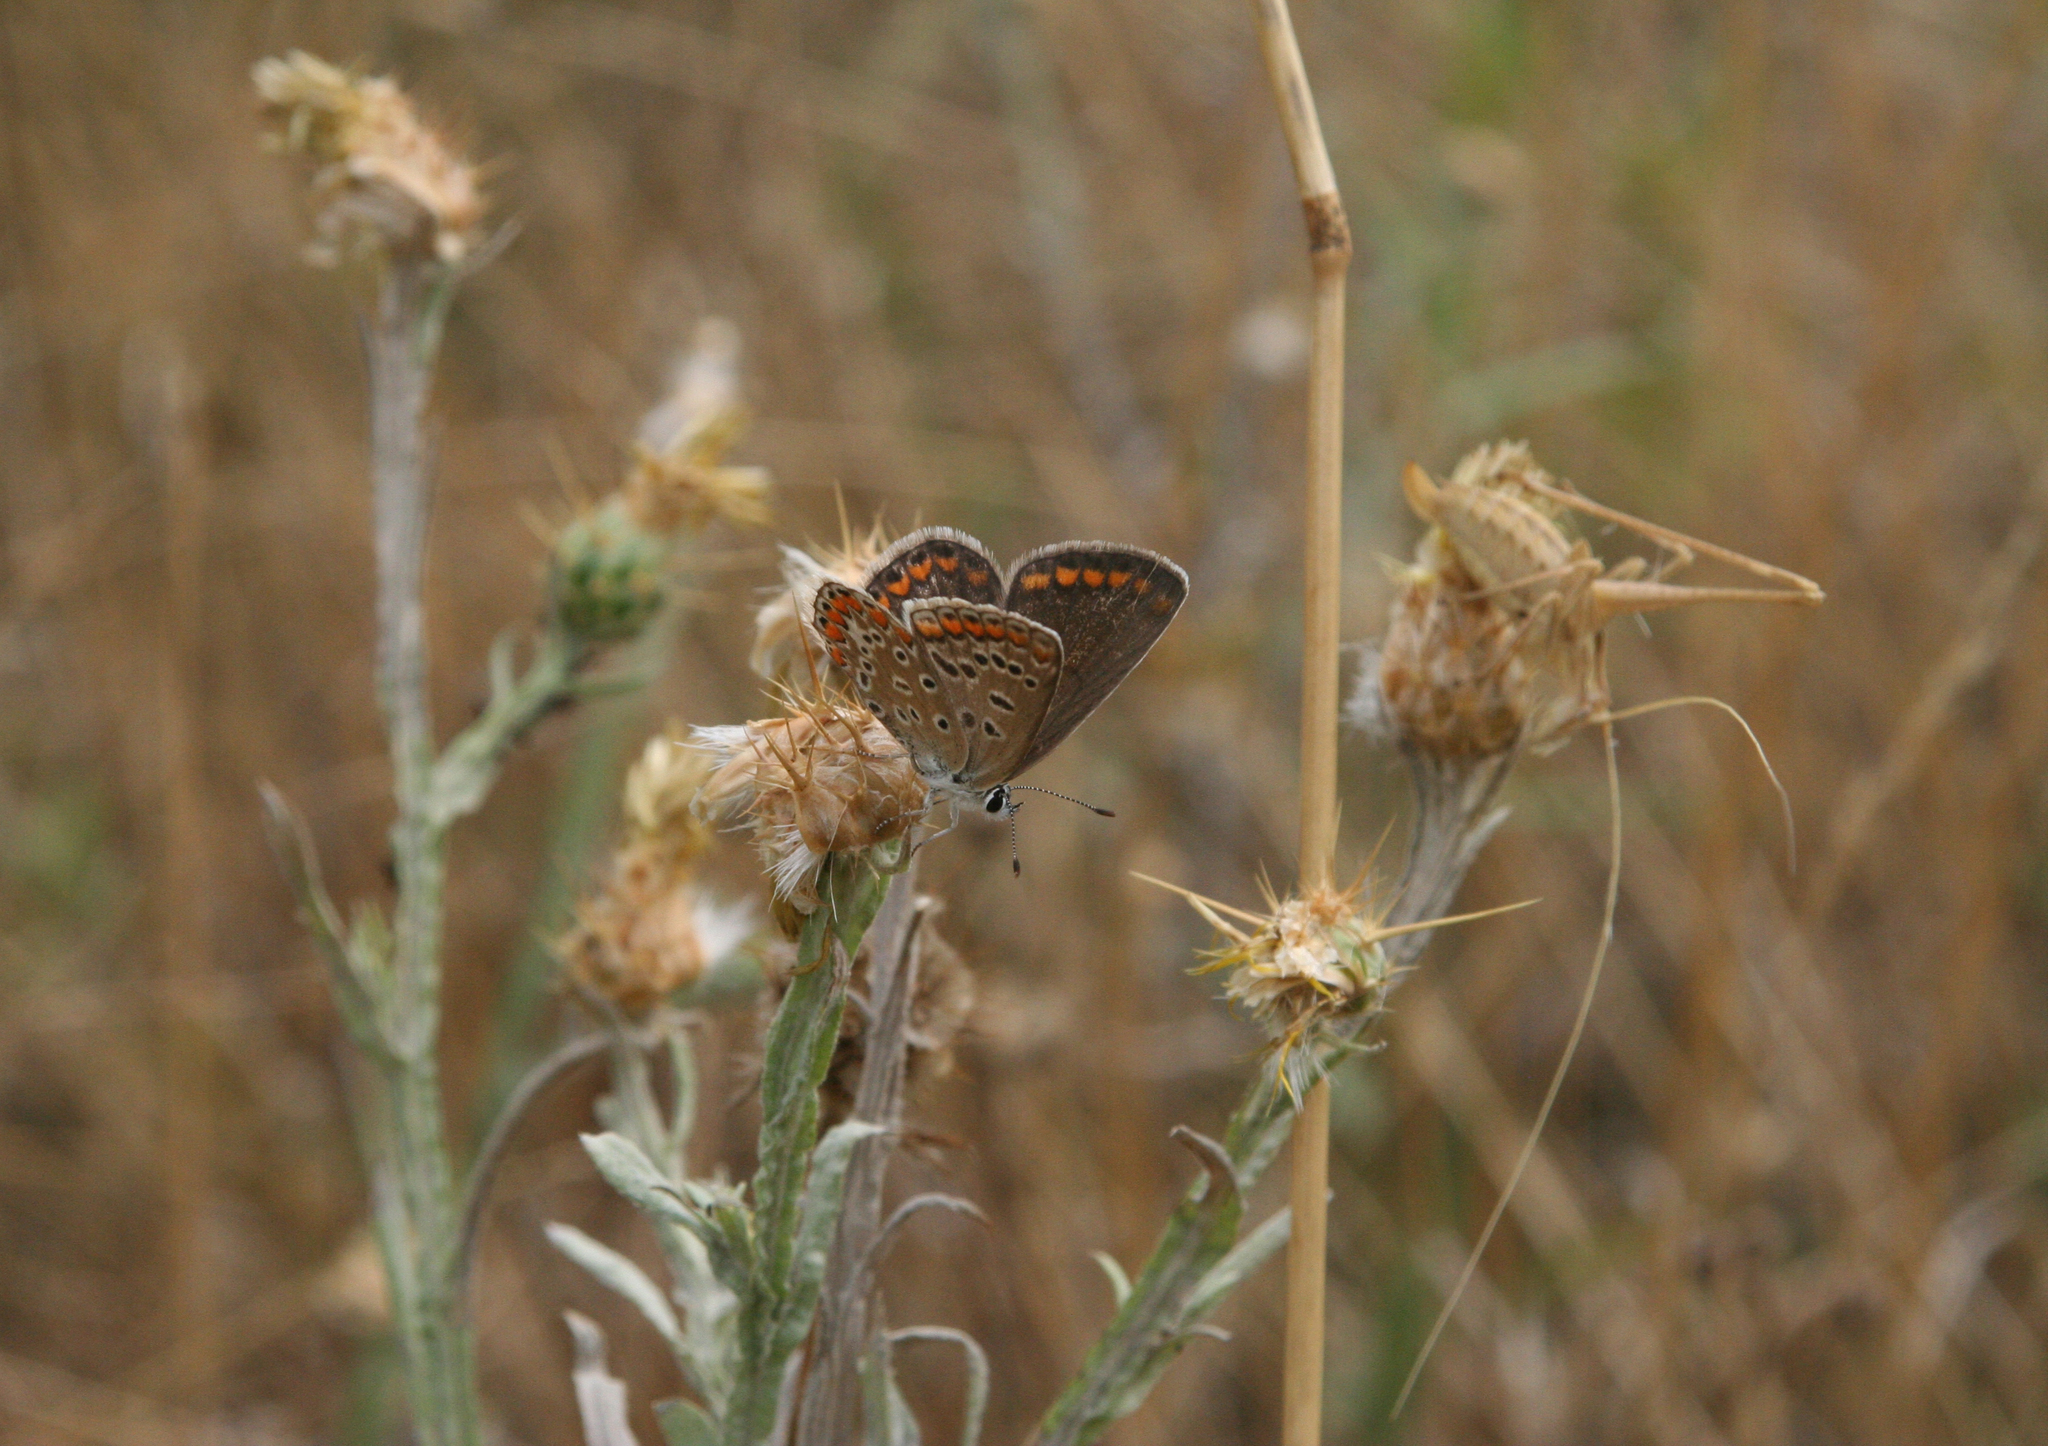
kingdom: Animalia
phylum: Arthropoda
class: Insecta
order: Lepidoptera
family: Lycaenidae
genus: Polyommatus
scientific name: Polyommatus icarus
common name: Common blue
